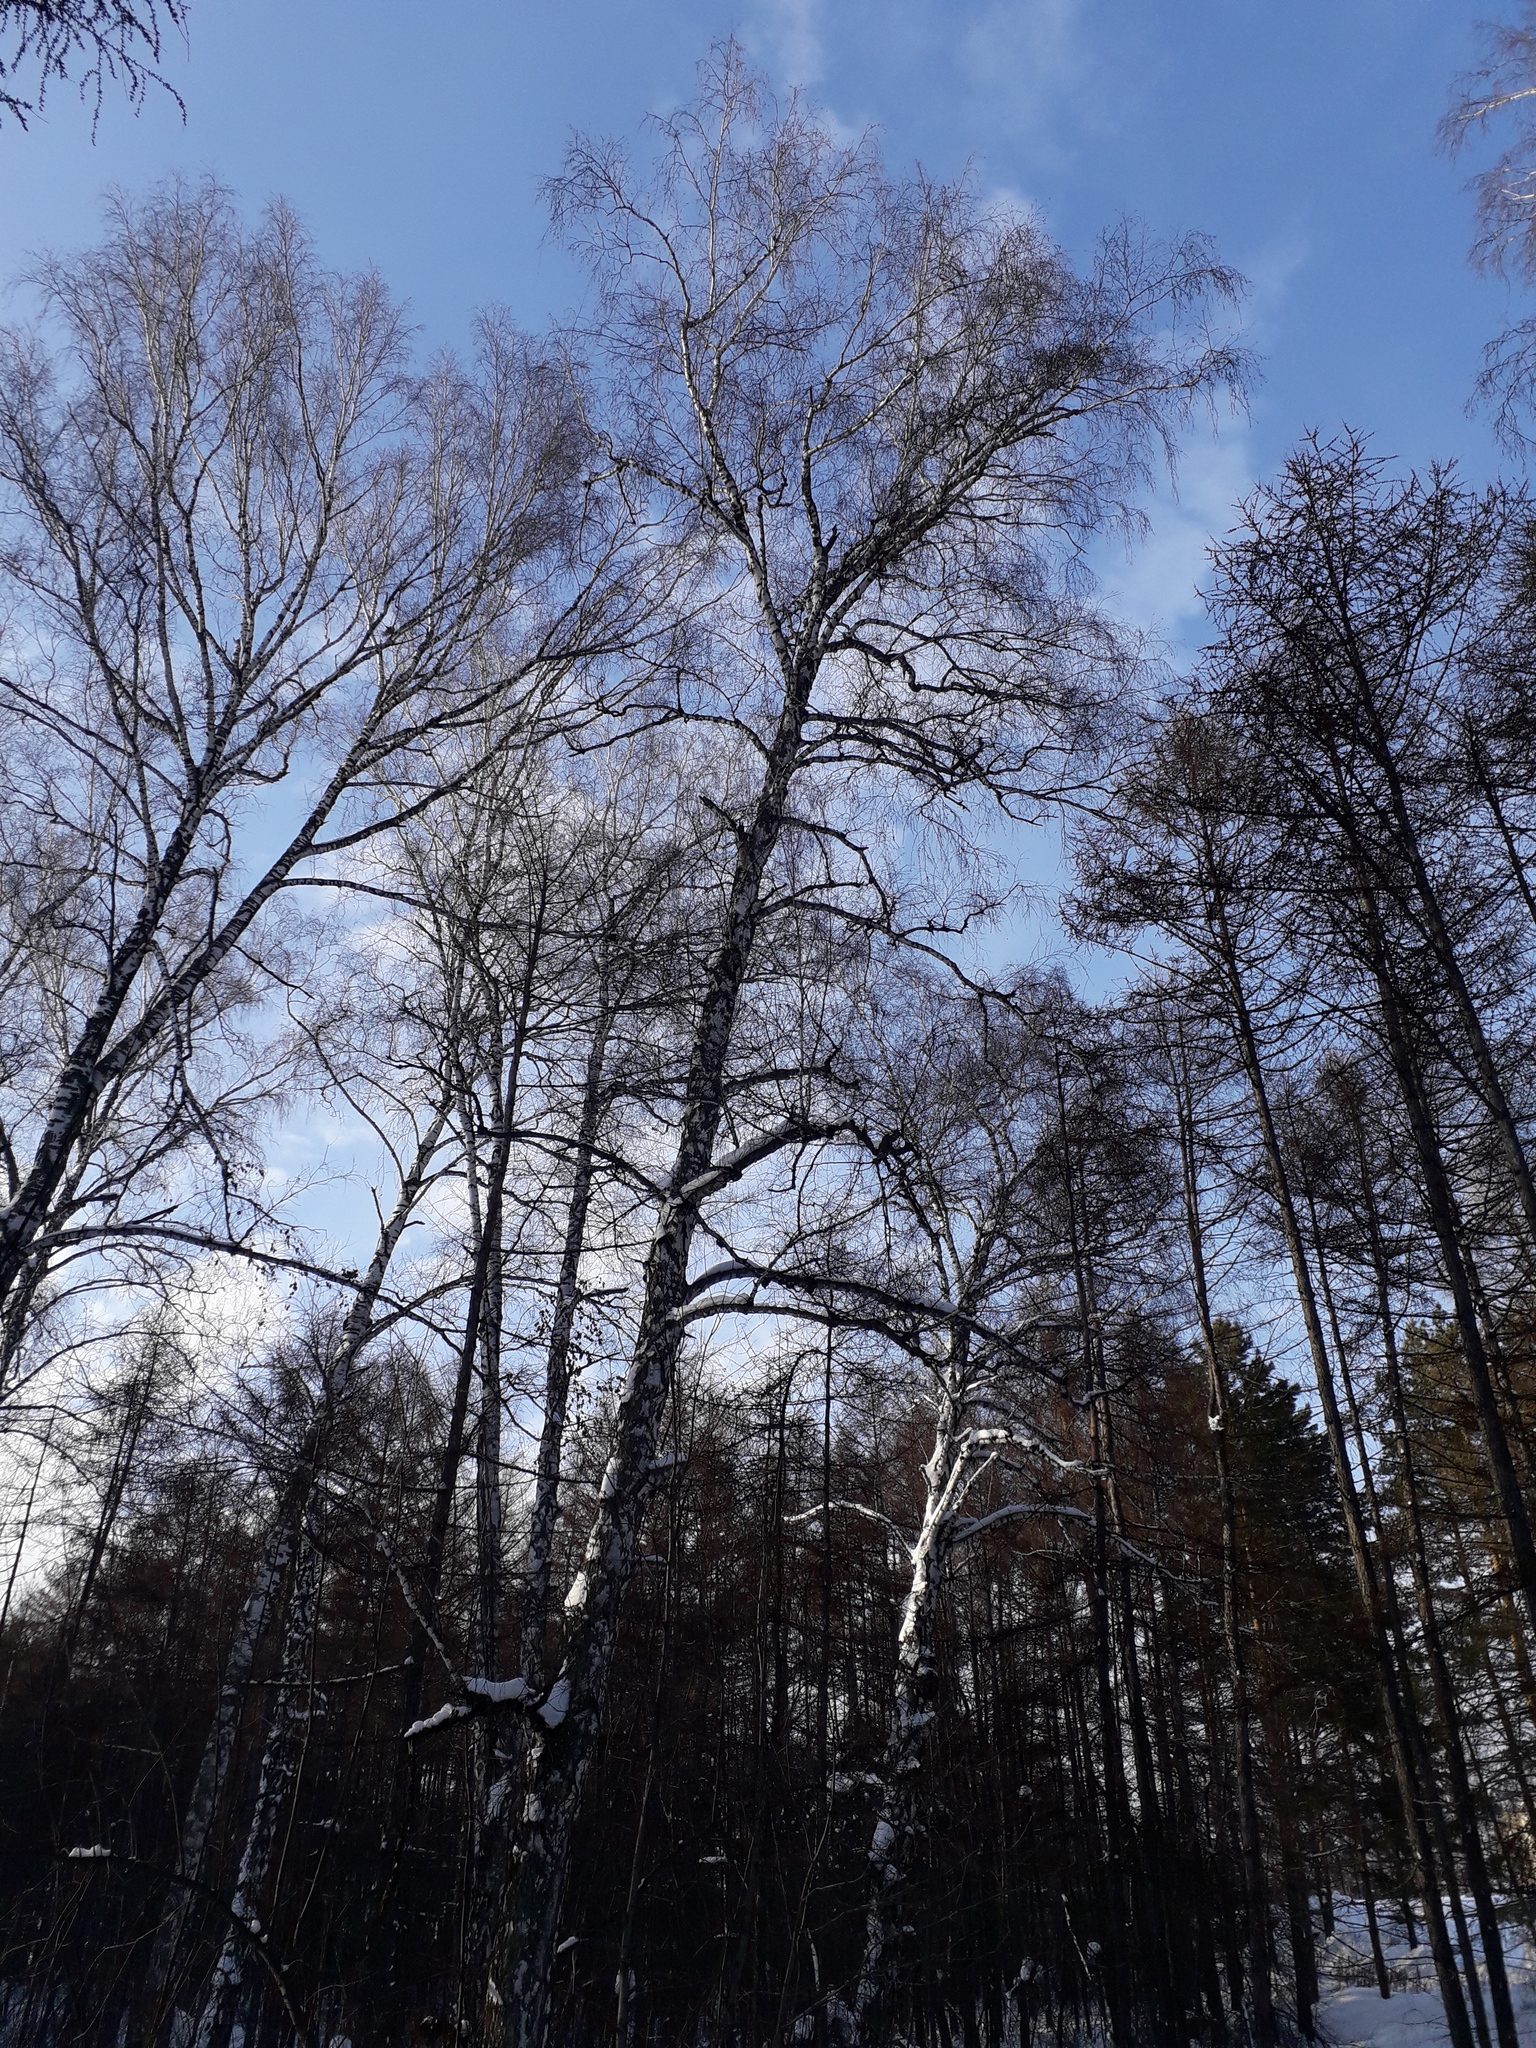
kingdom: Plantae
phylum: Tracheophyta
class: Magnoliopsida
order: Fagales
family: Betulaceae
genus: Betula
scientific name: Betula pendula
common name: Silver birch
